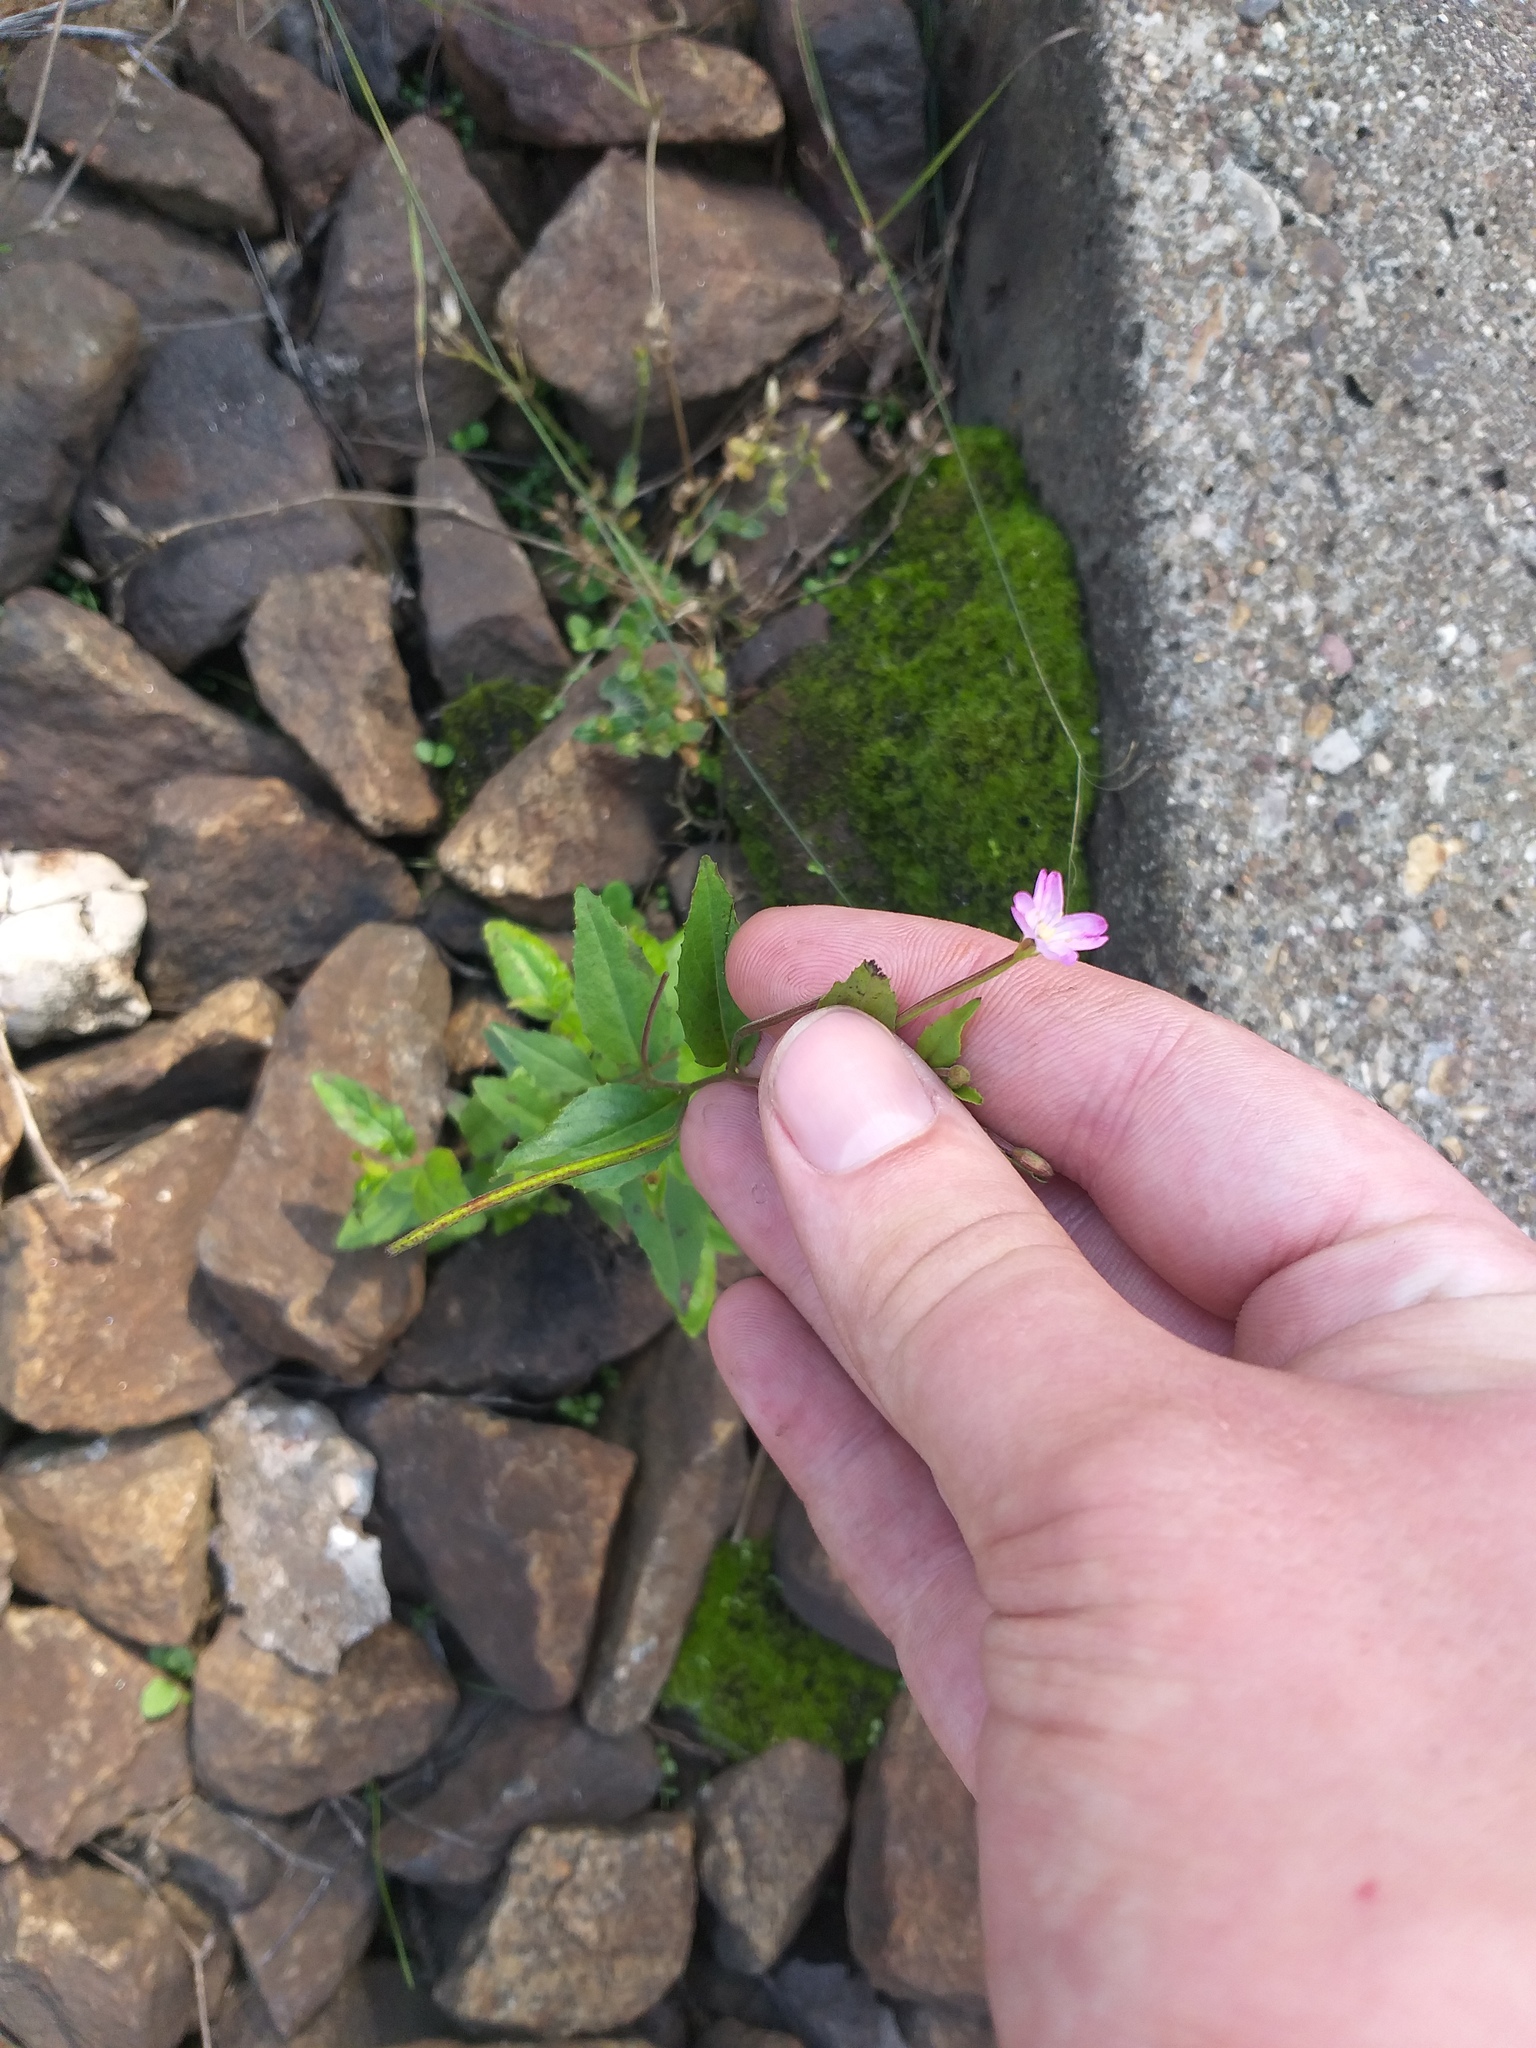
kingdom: Plantae
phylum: Tracheophyta
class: Magnoliopsida
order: Myrtales
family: Onagraceae
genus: Epilobium
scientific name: Epilobium montanum
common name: Broad-leaved willowherb
